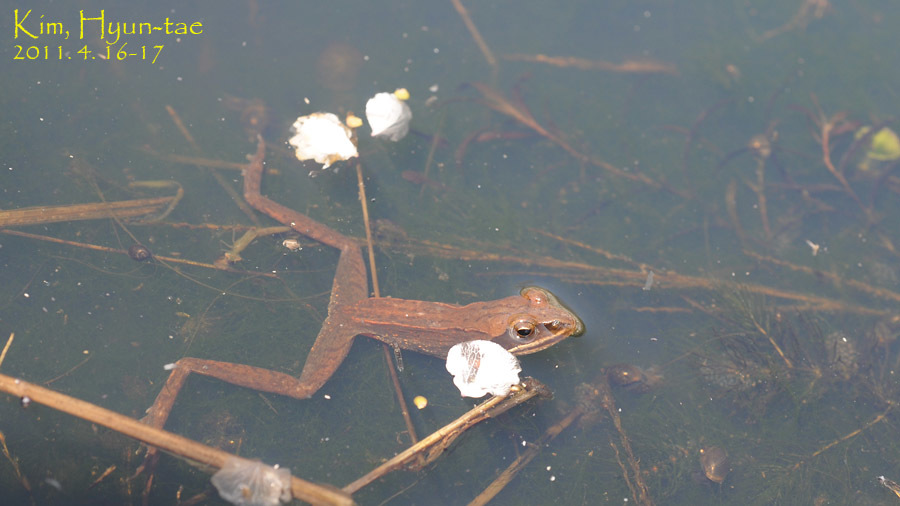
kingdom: Animalia
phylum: Chordata
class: Amphibia
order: Anura
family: Ranidae
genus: Rana
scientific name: Rana coreana
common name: Korean brown frog
